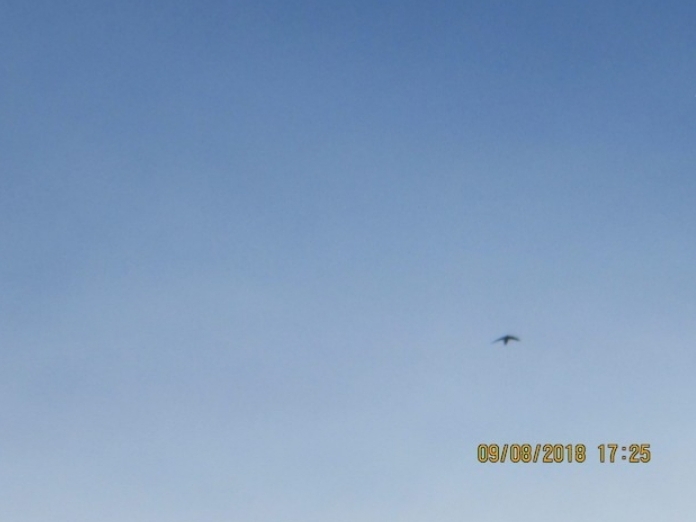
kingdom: Animalia
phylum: Chordata
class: Aves
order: Apodiformes
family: Apodidae
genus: Chaetura
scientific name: Chaetura pelagica
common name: Chimney swift
